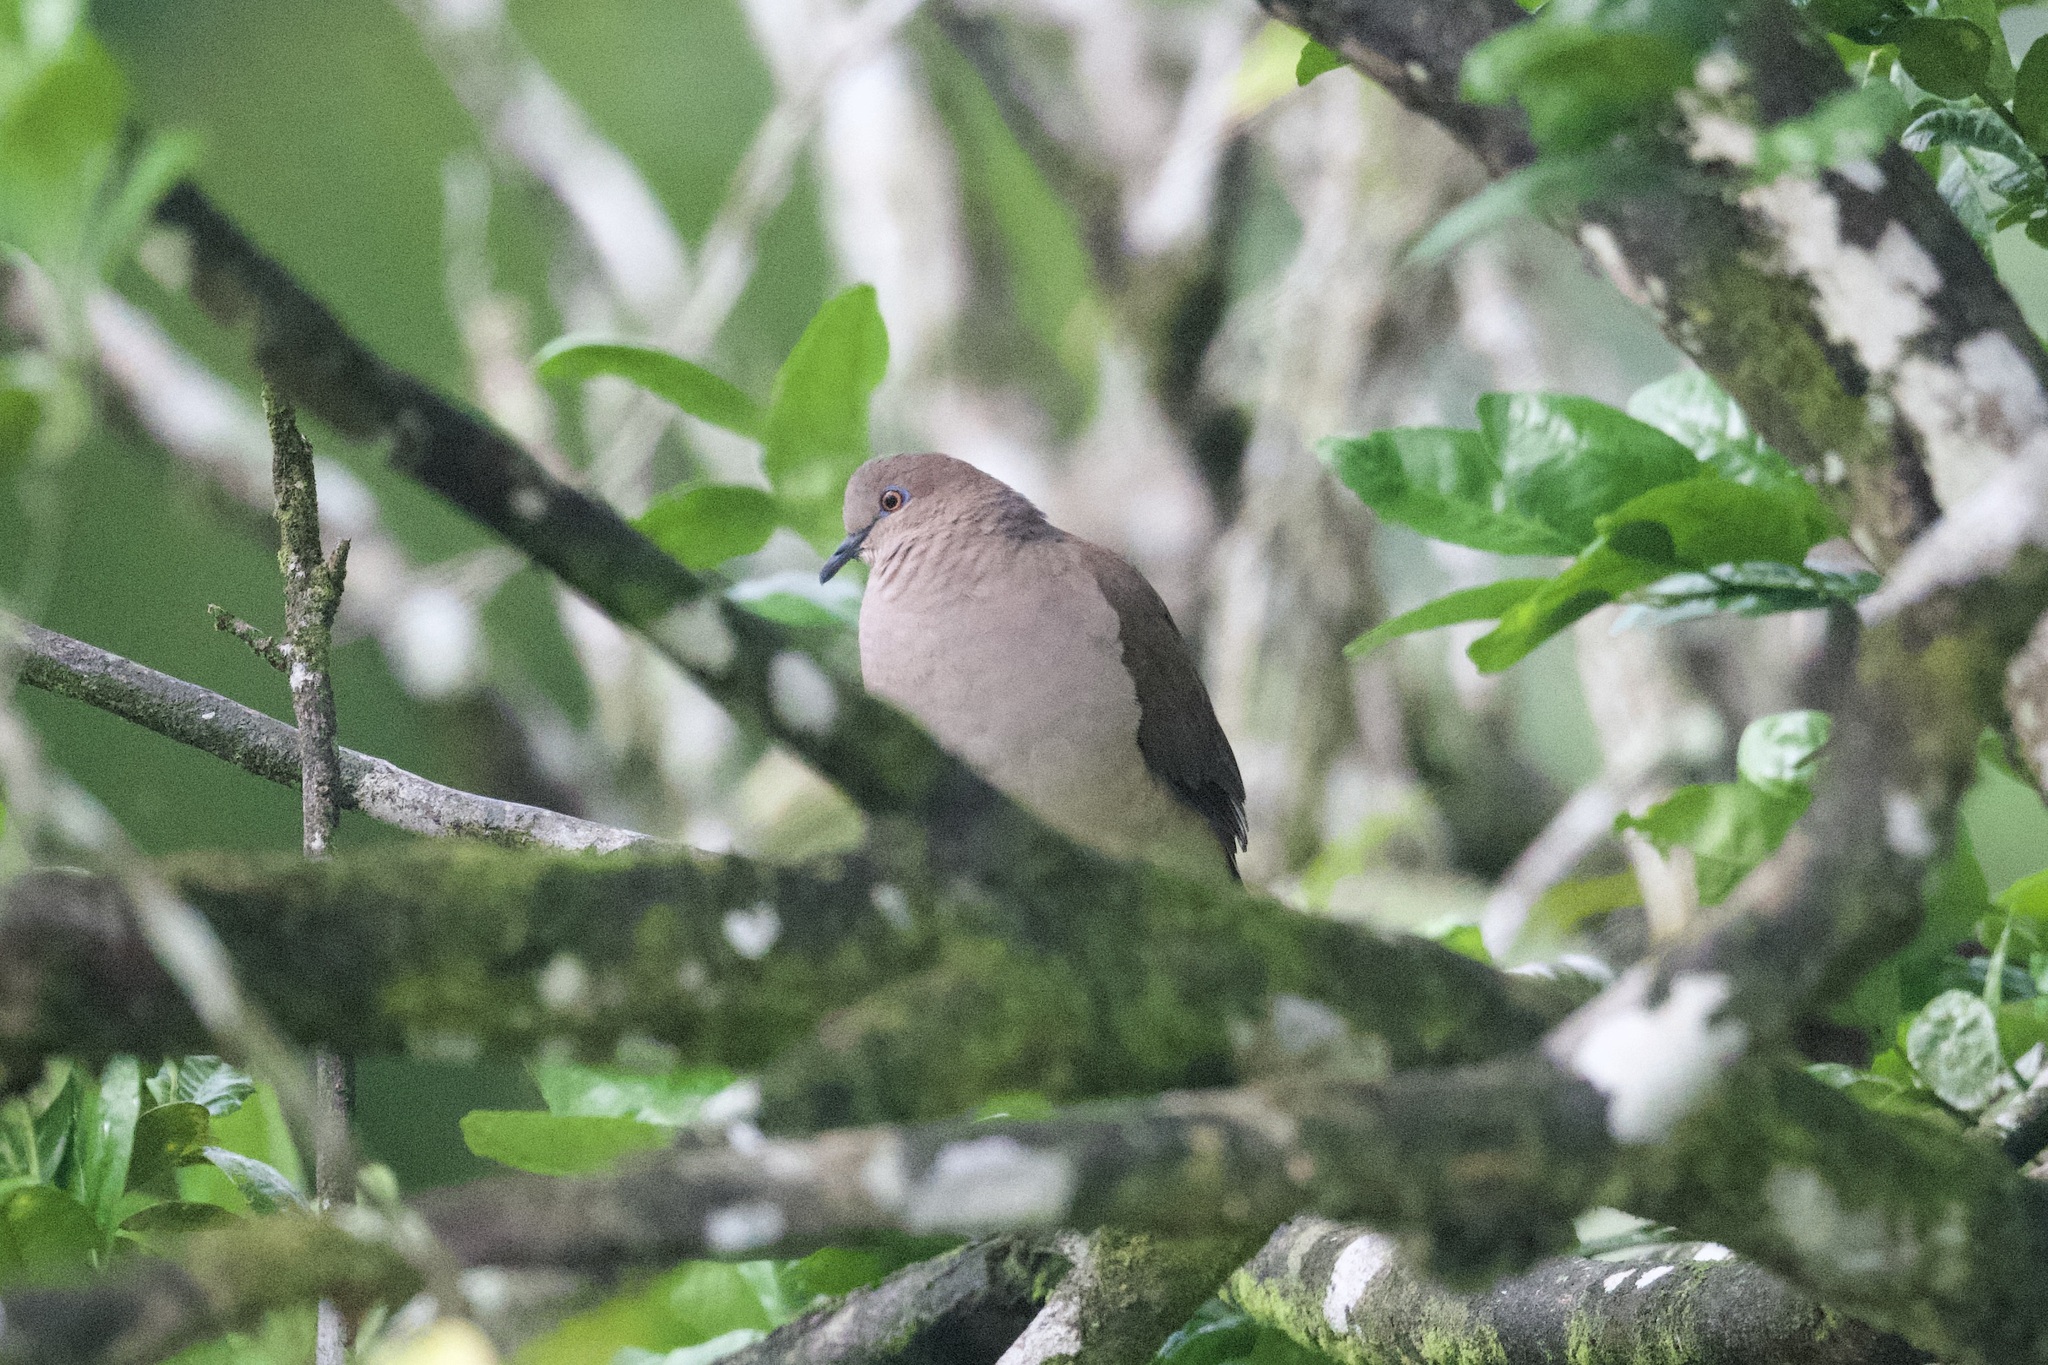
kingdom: Animalia
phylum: Chordata
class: Aves
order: Columbiformes
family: Columbidae
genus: Leptotila
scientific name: Leptotila verreauxi
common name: White-tipped dove
